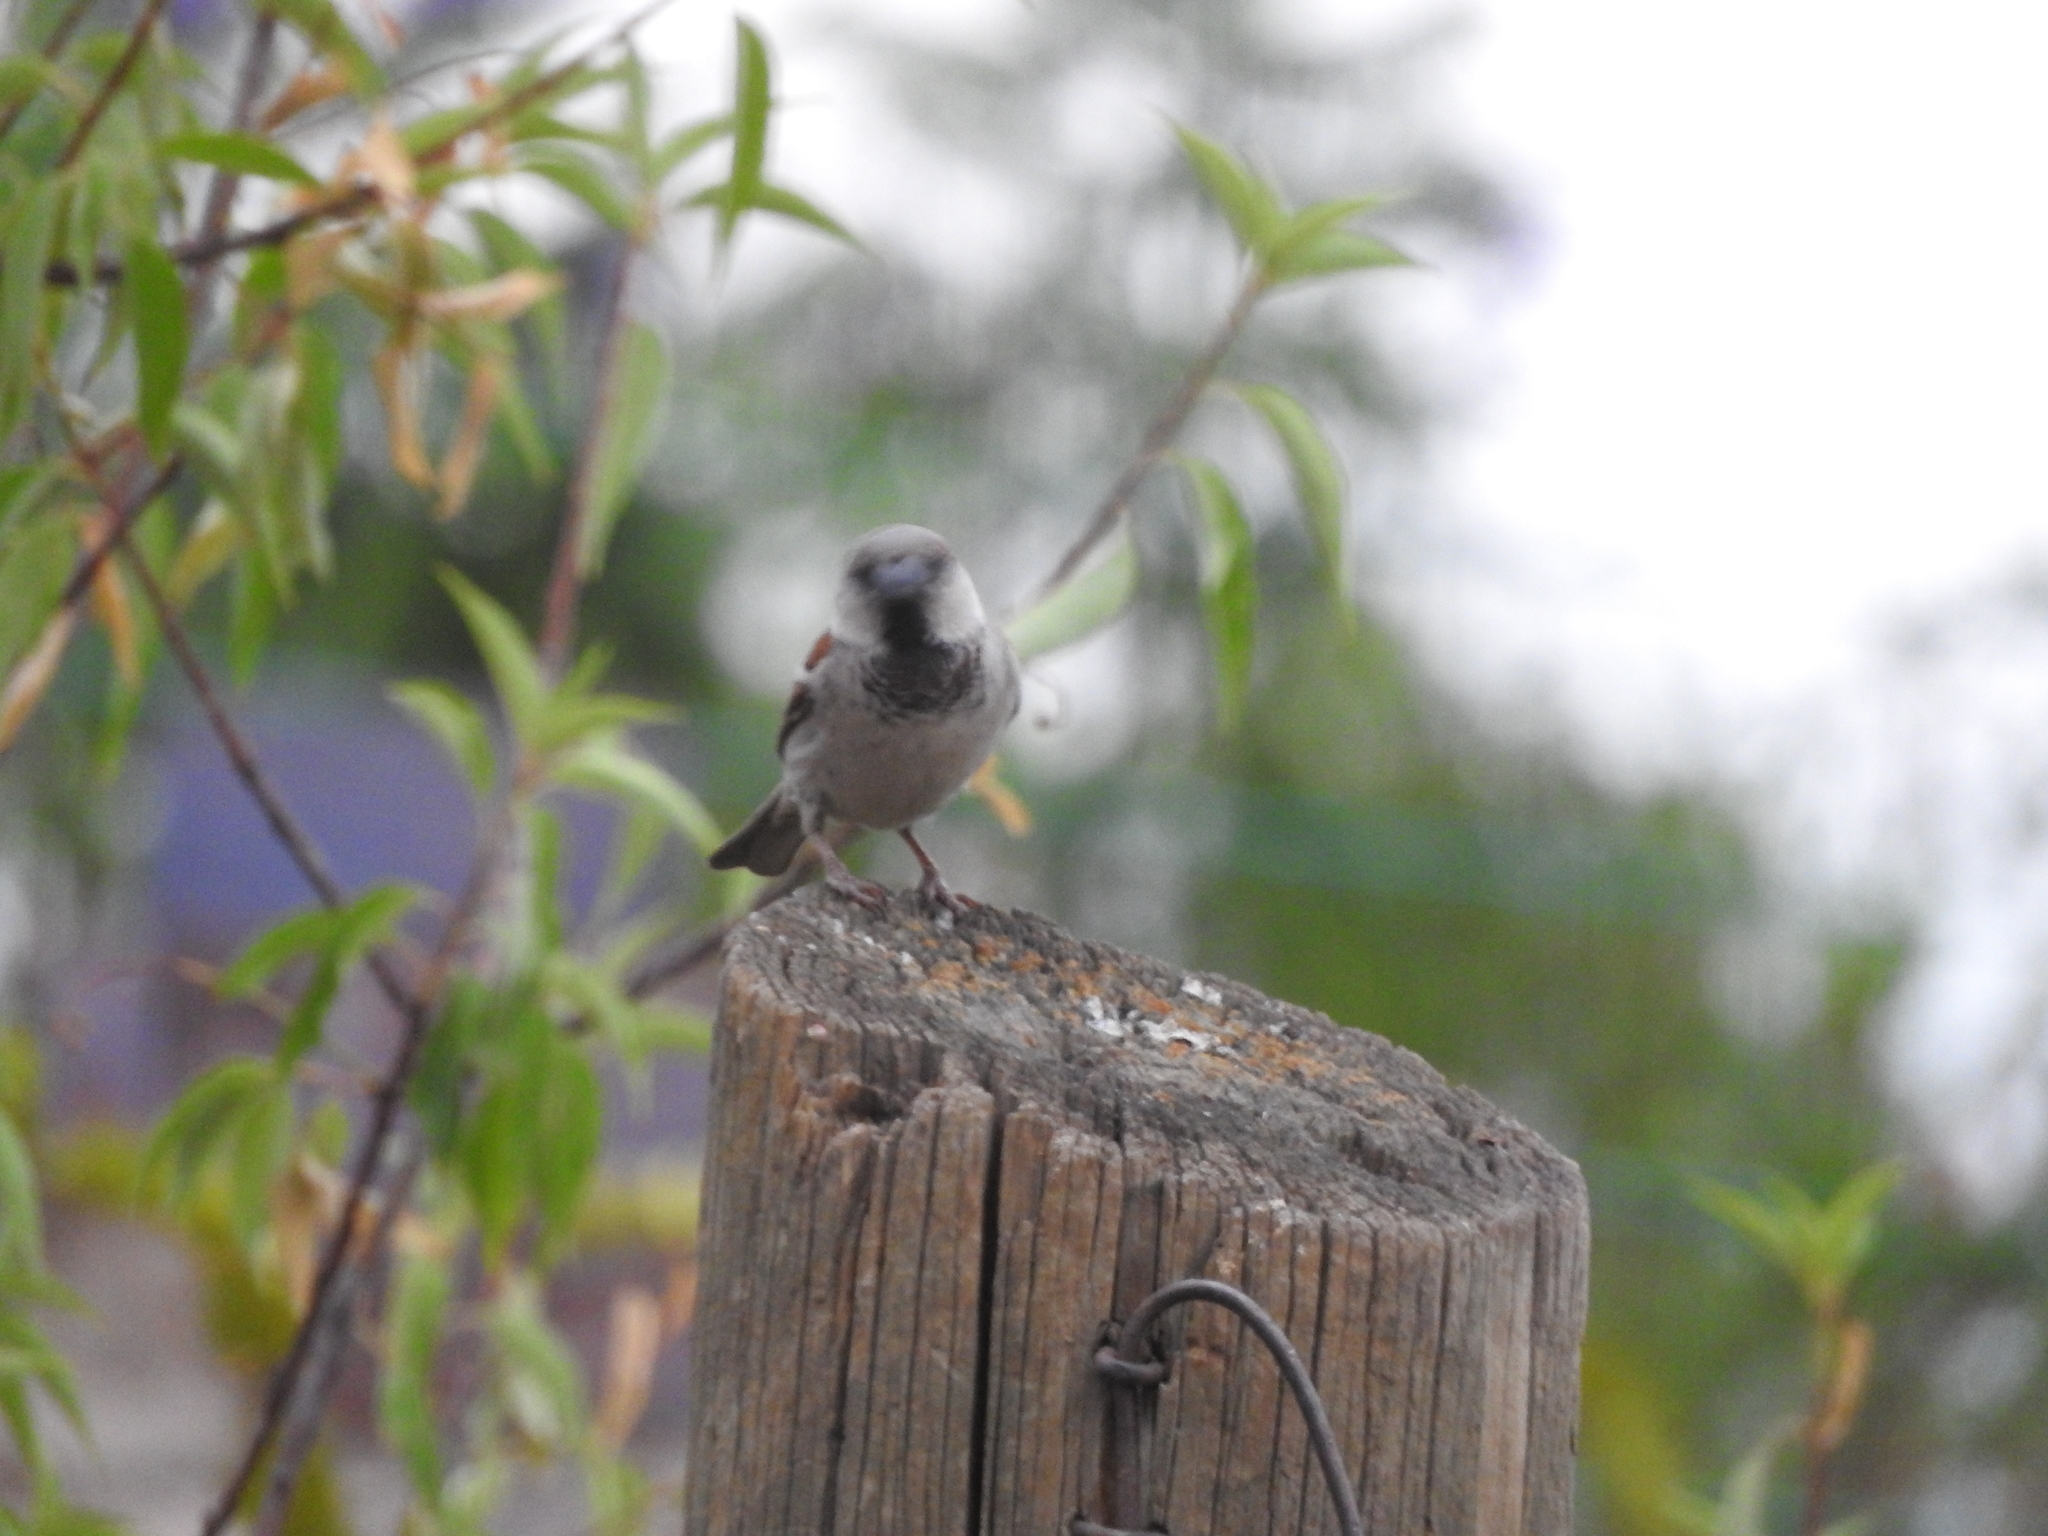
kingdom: Animalia
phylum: Chordata
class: Aves
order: Passeriformes
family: Passeridae
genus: Passer
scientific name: Passer domesticus
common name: House sparrow
